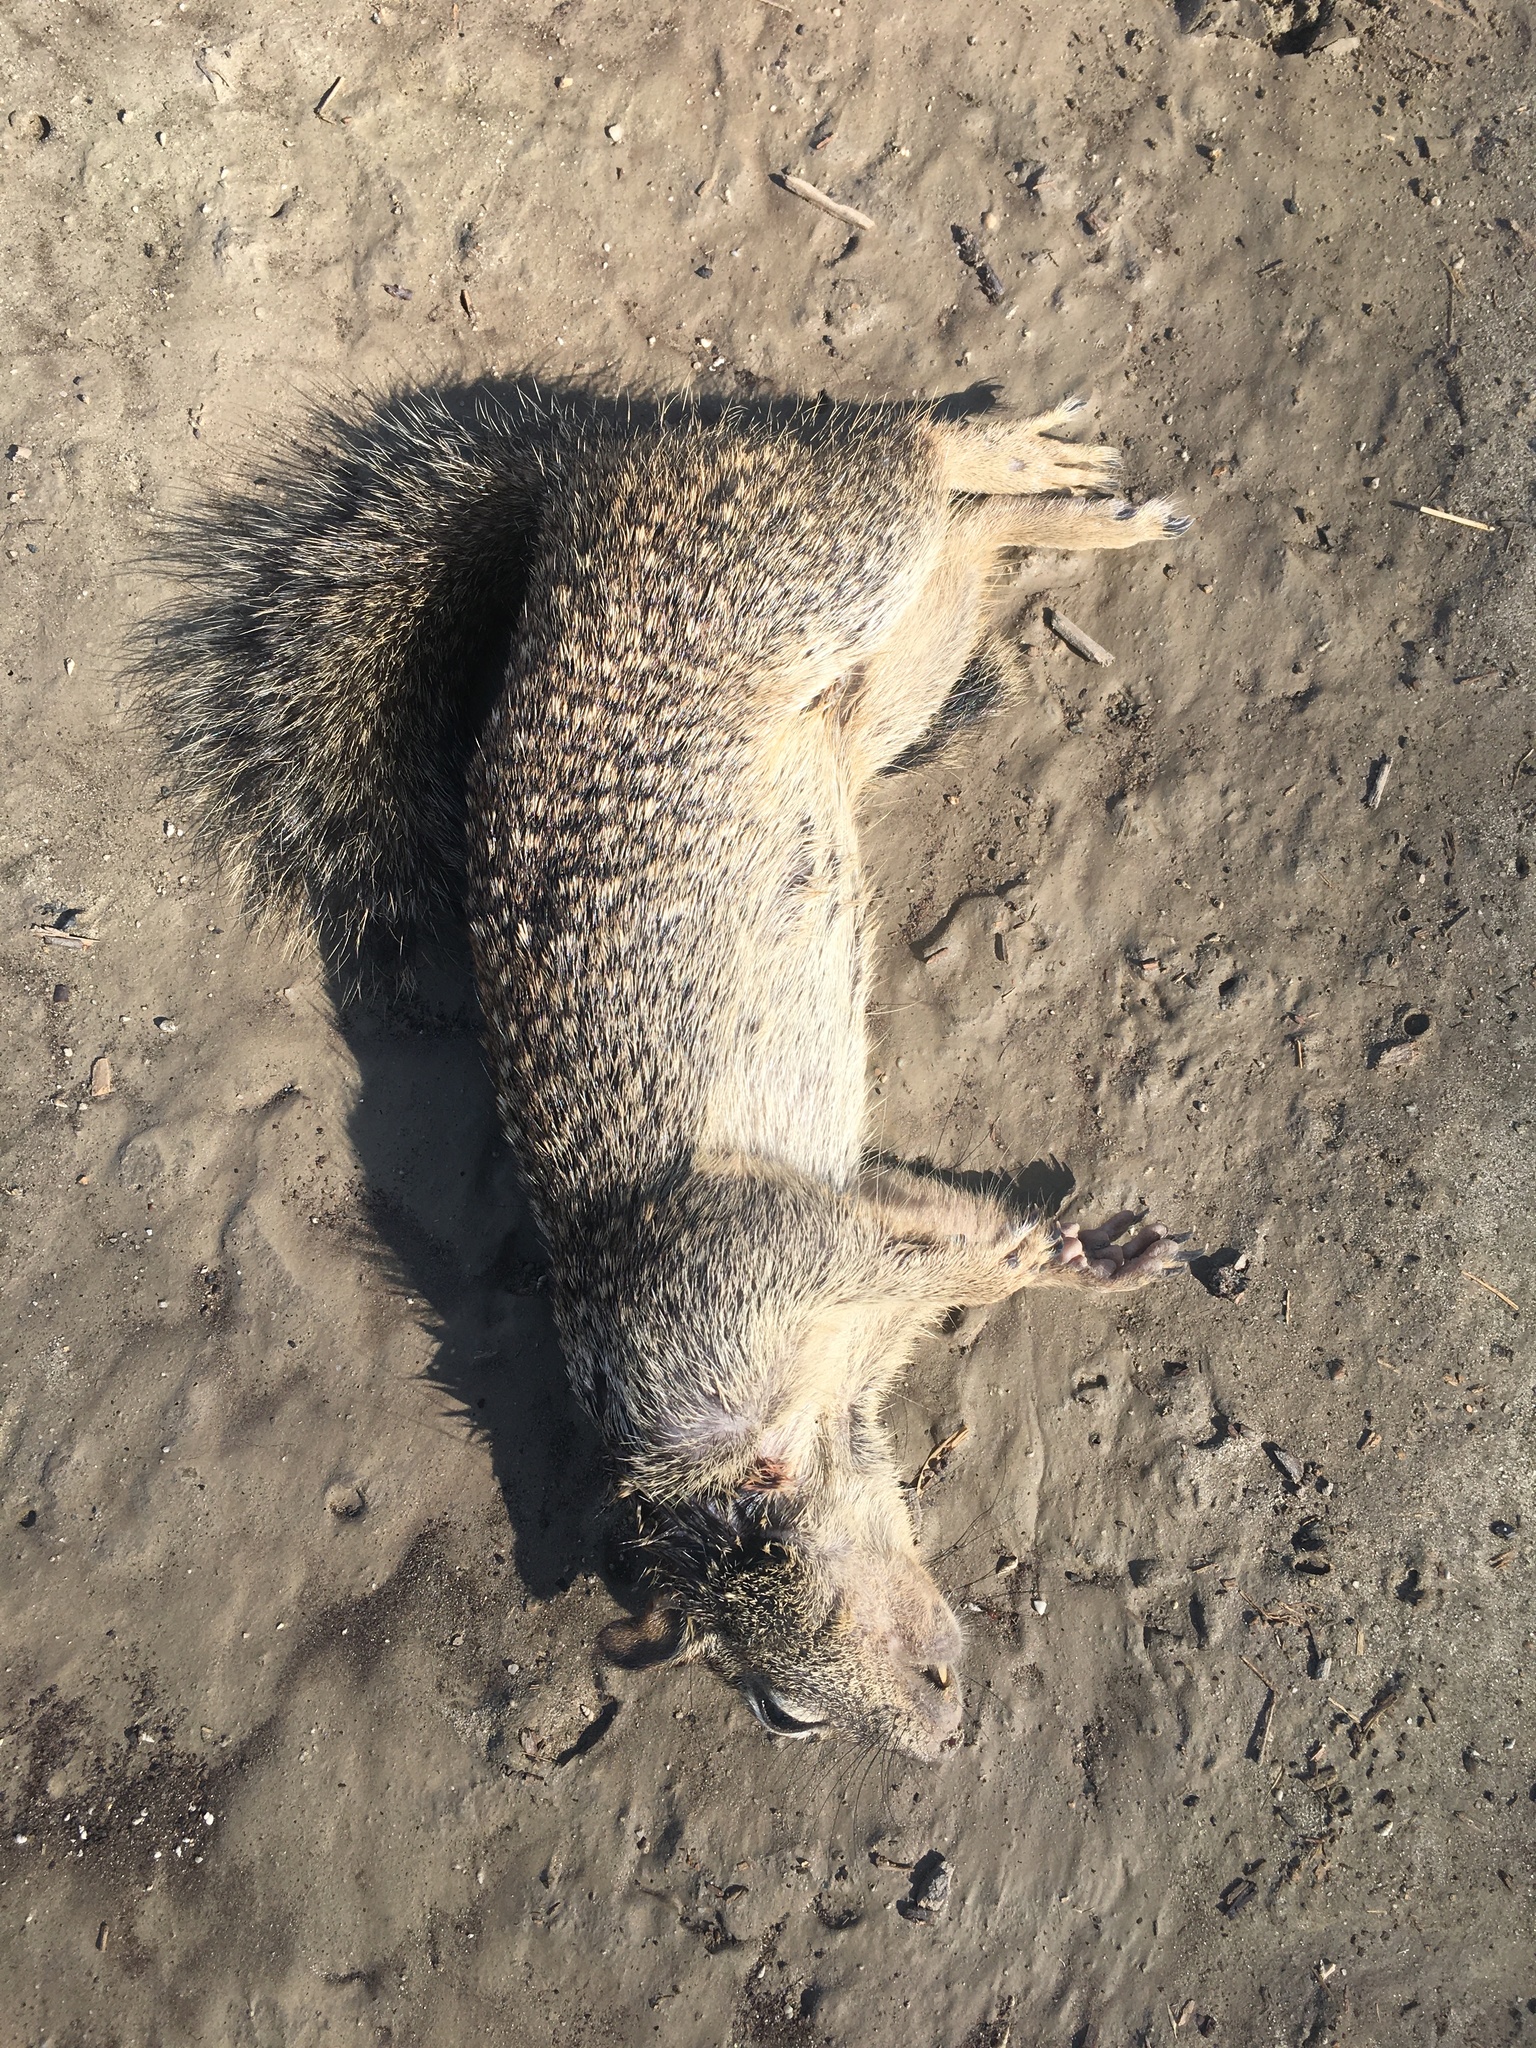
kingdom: Animalia
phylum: Chordata
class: Mammalia
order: Rodentia
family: Sciuridae
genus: Otospermophilus
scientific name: Otospermophilus beecheyi
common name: California ground squirrel
